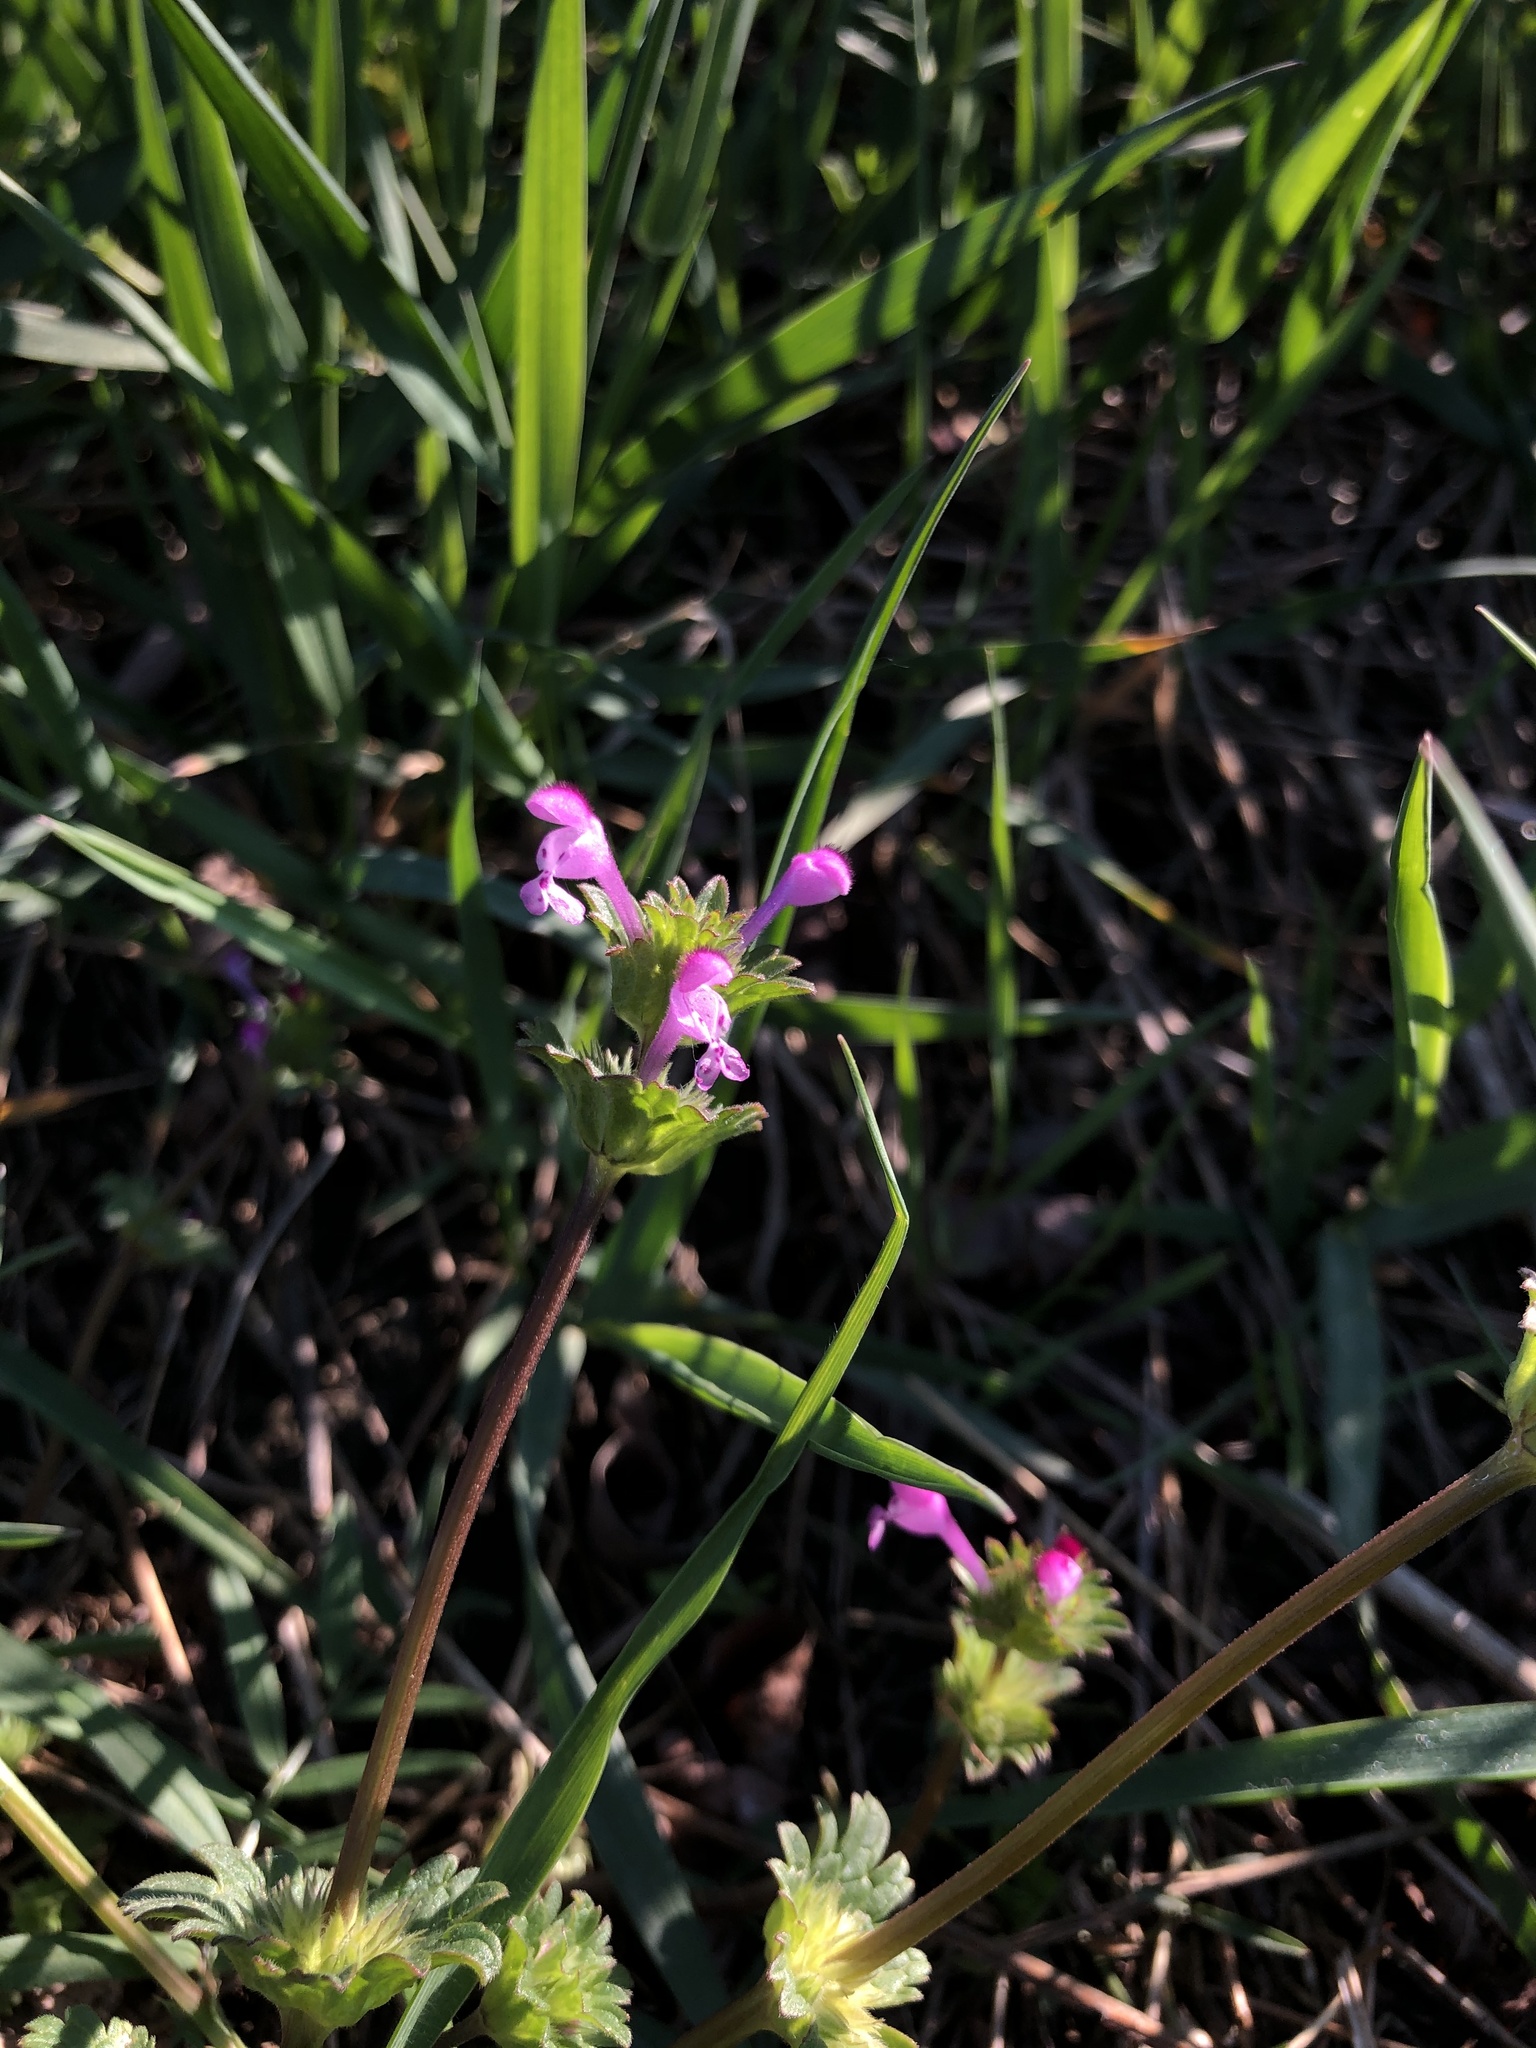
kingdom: Plantae
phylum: Tracheophyta
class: Magnoliopsida
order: Lamiales
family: Lamiaceae
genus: Lamium
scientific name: Lamium amplexicaule
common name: Henbit dead-nettle
